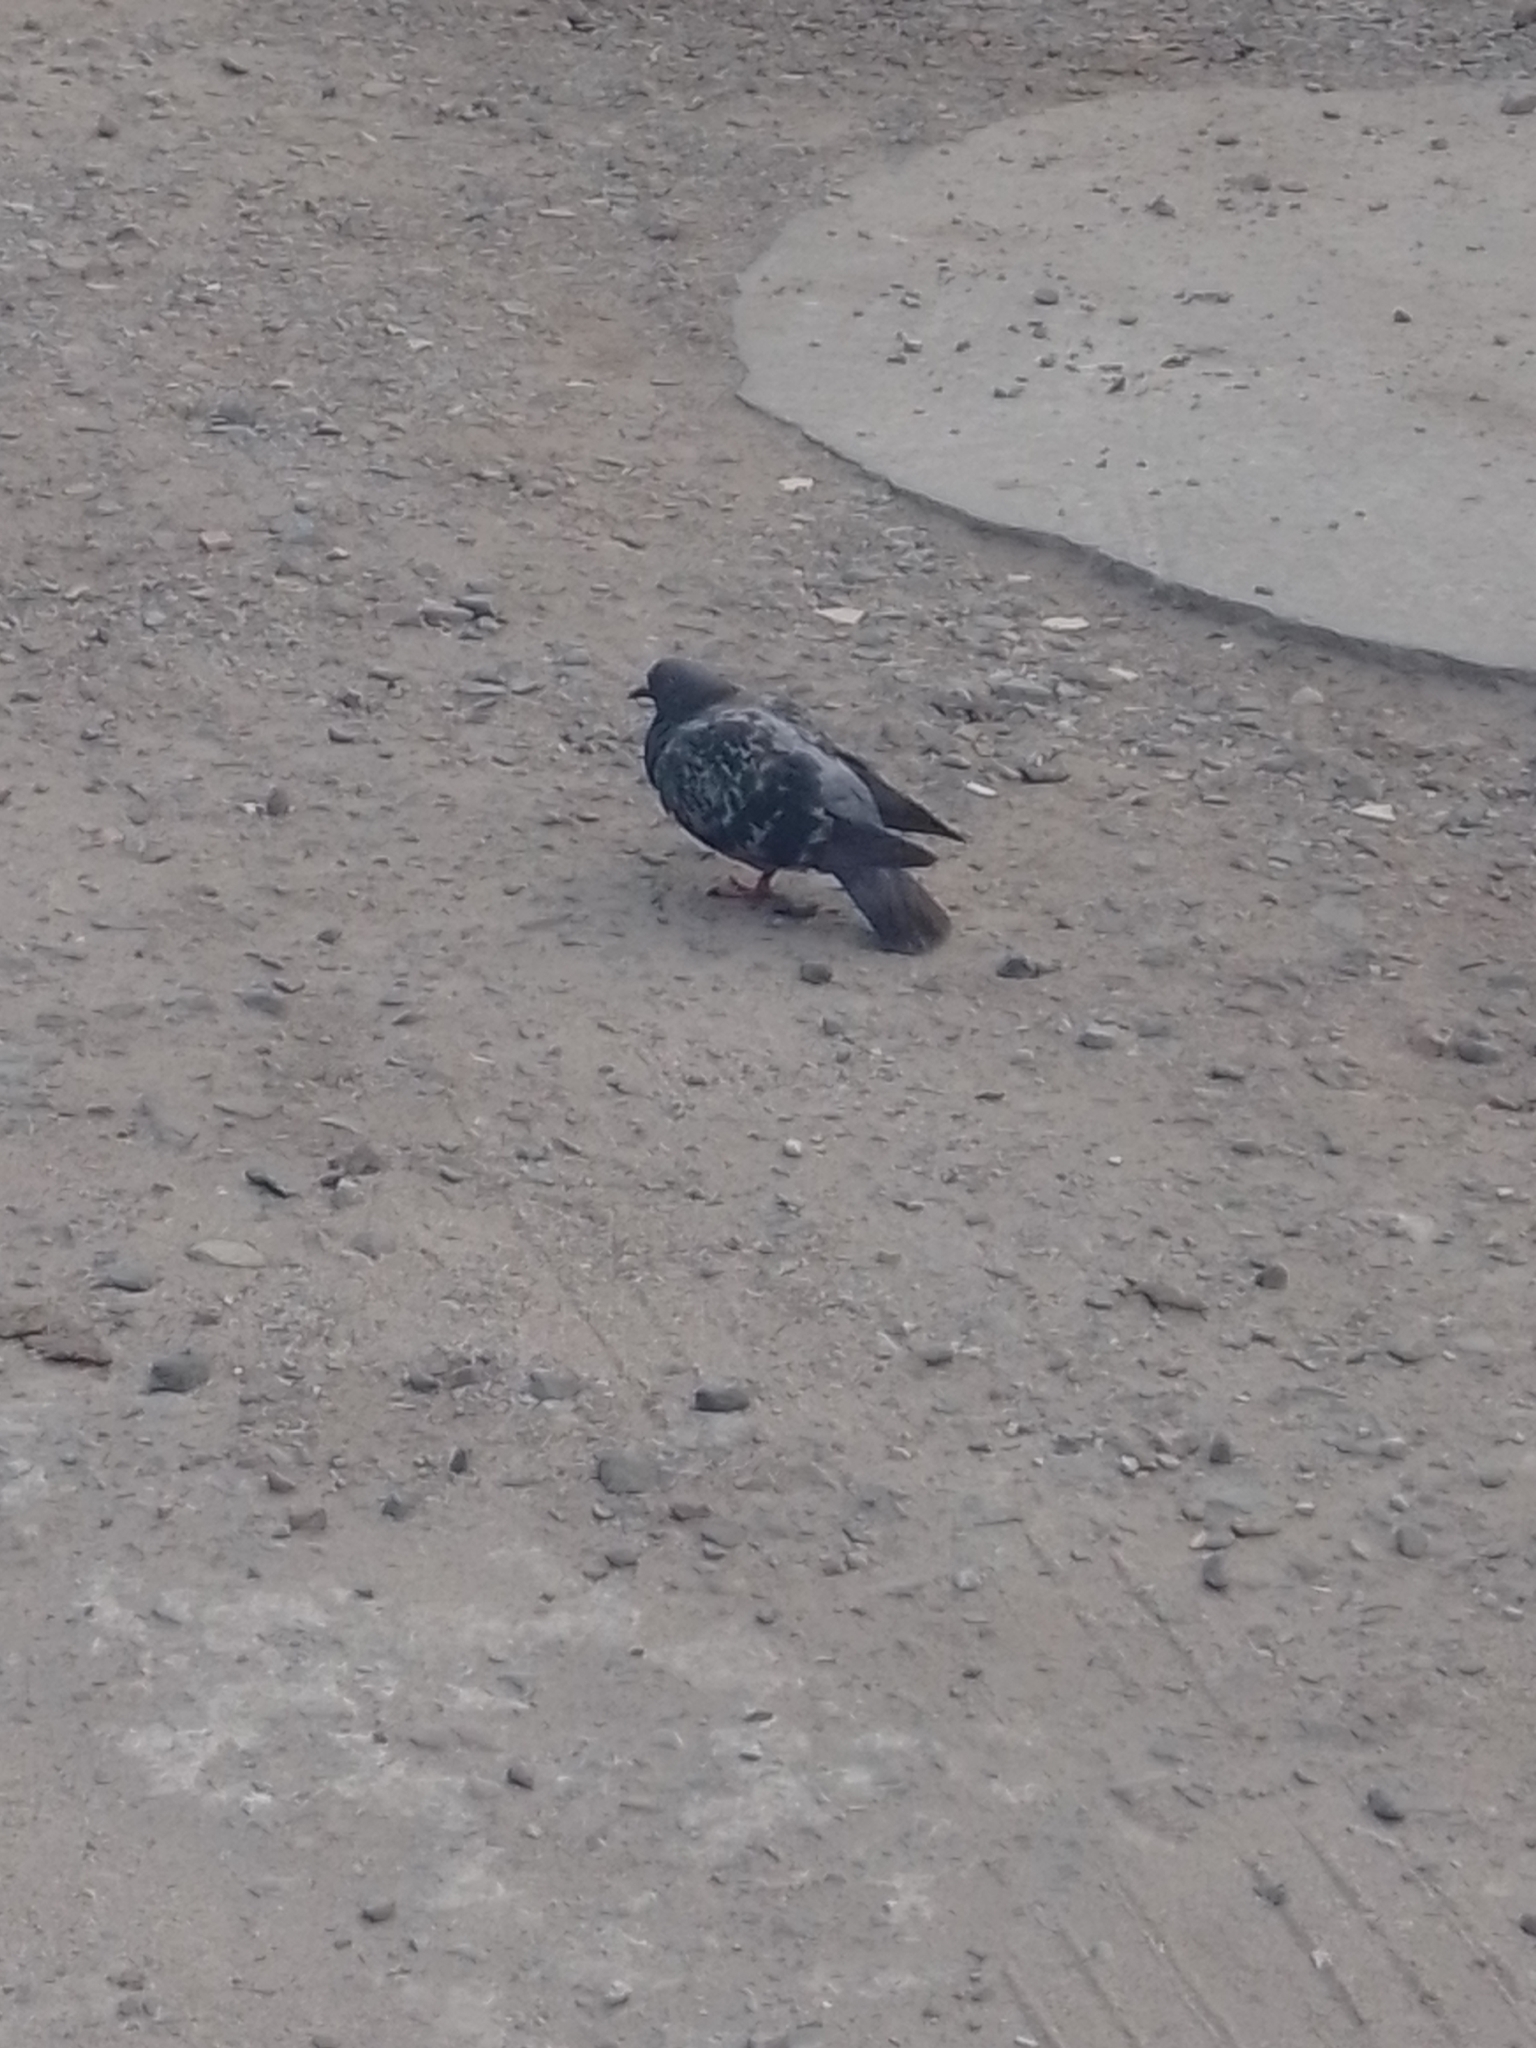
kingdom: Animalia
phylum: Chordata
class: Aves
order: Columbiformes
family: Columbidae
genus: Columba
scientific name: Columba livia
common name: Rock pigeon
